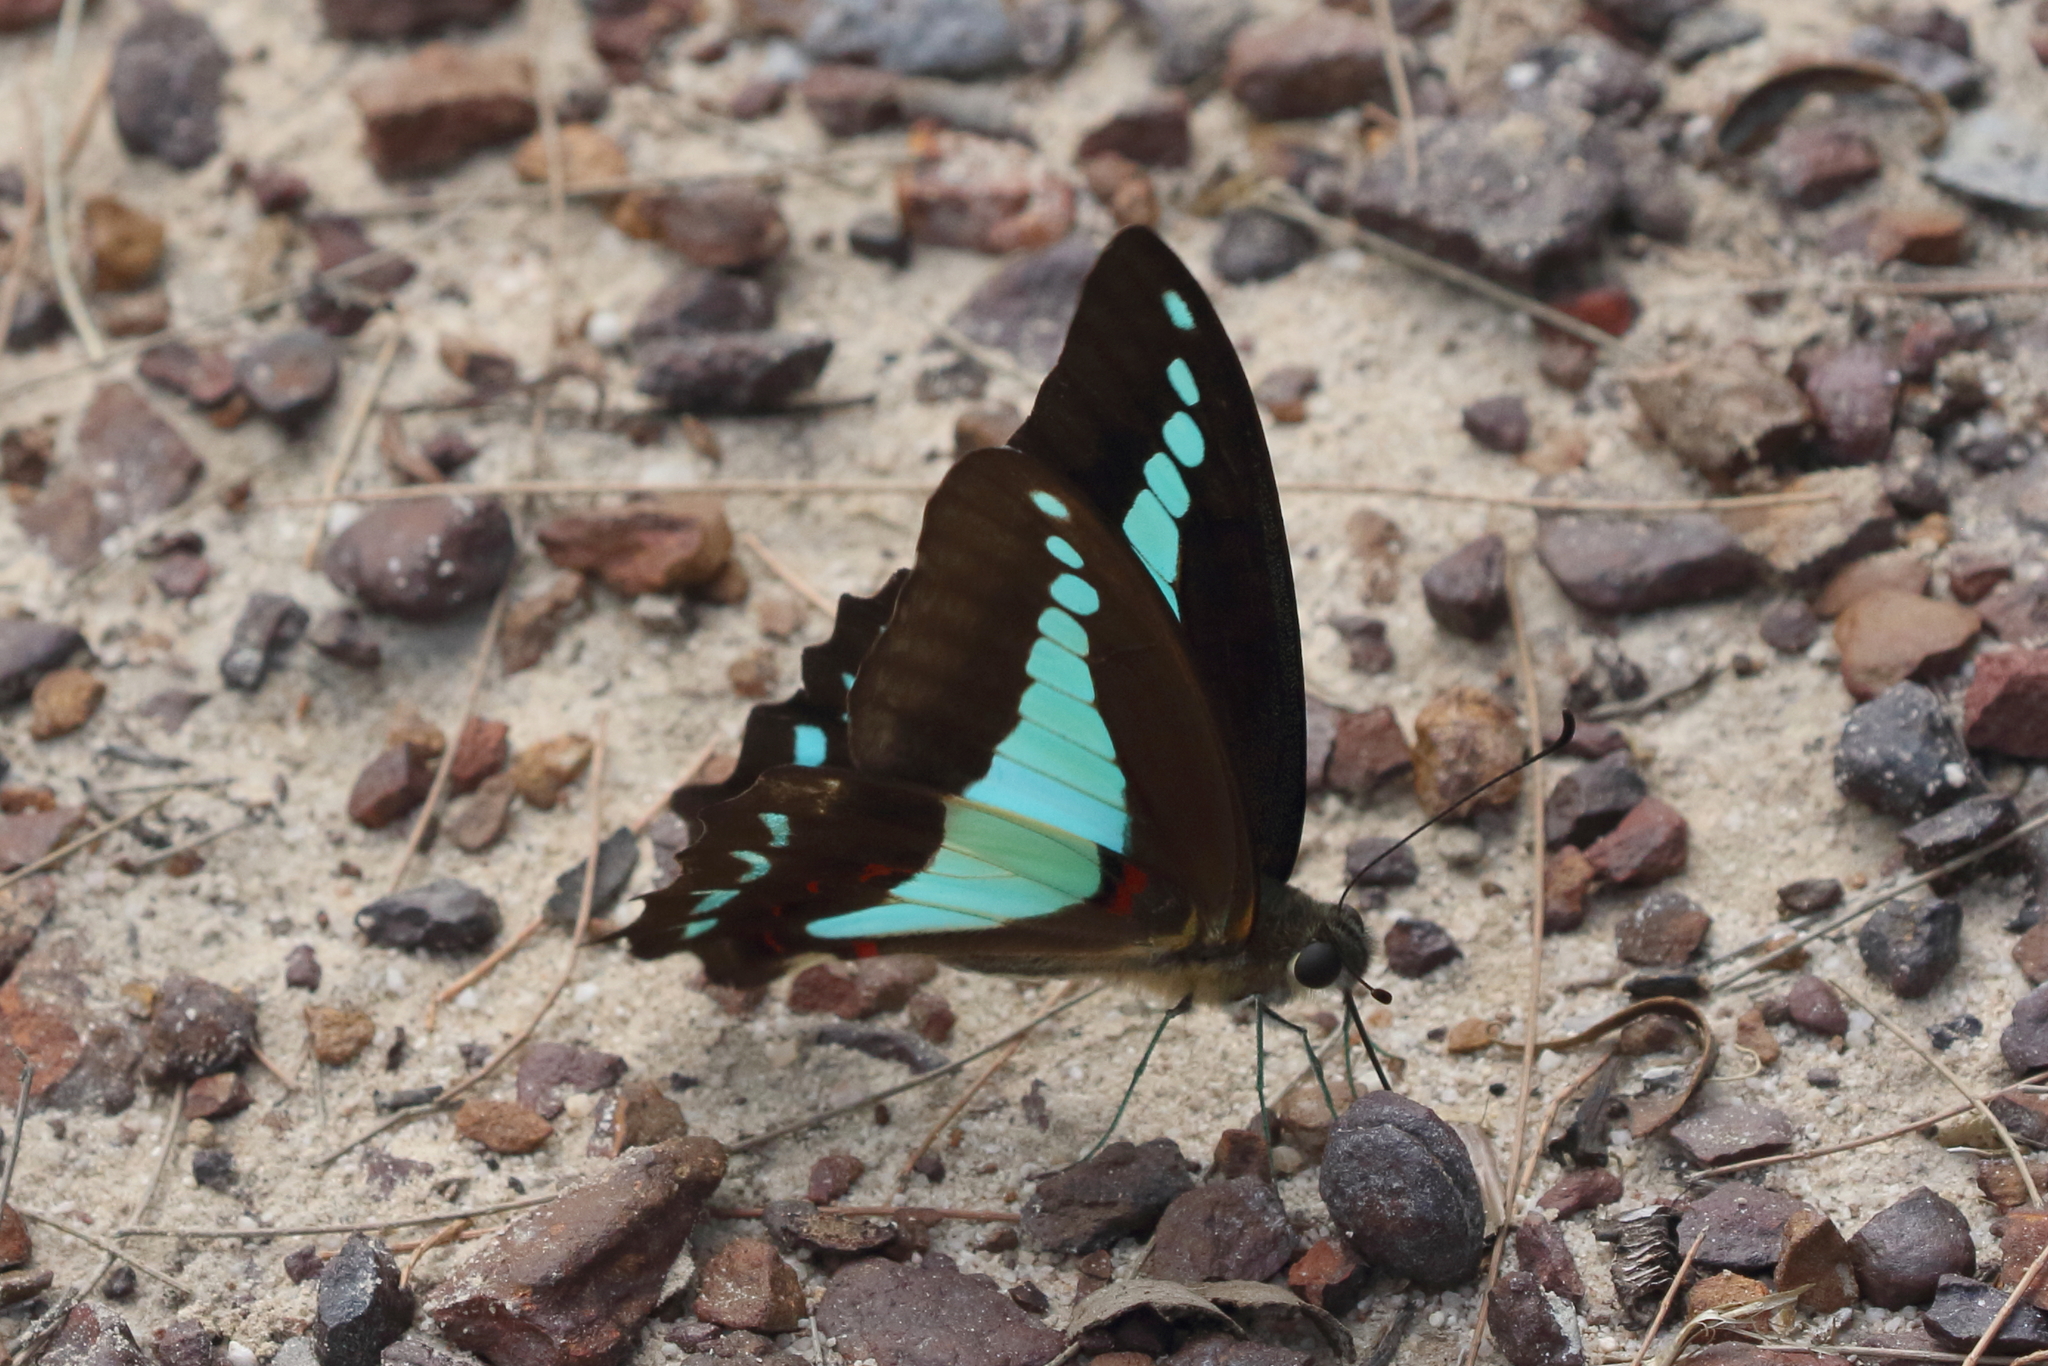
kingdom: Animalia
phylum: Arthropoda
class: Insecta
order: Lepidoptera
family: Papilionidae
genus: Graphium
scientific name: Graphium
